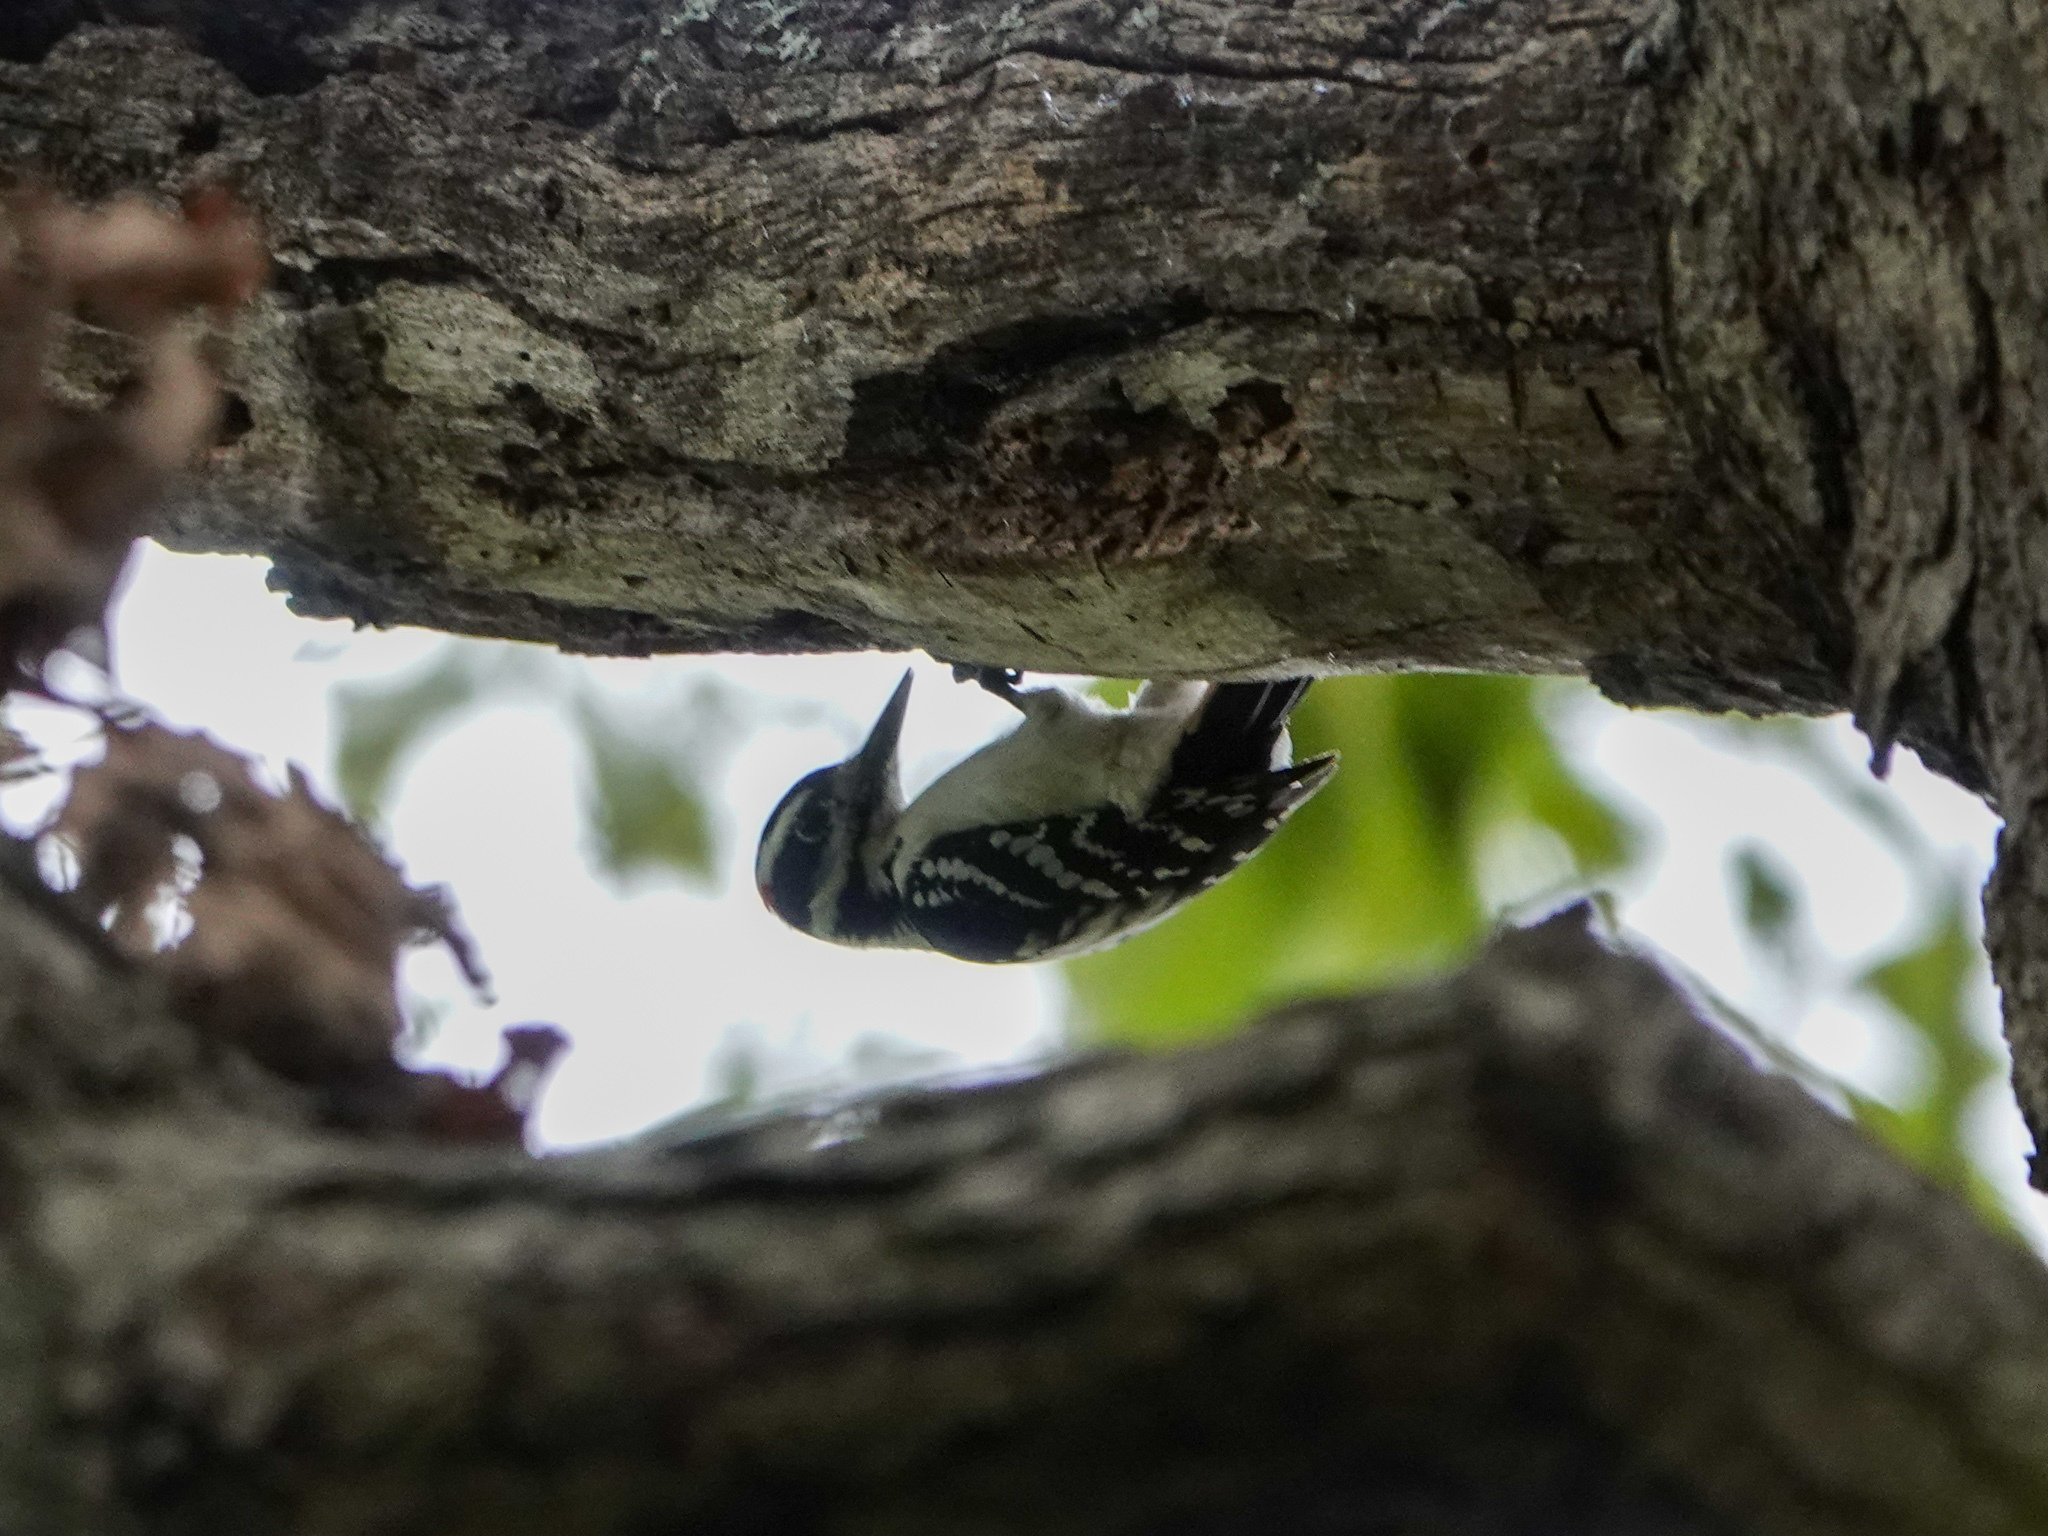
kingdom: Animalia
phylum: Chordata
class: Aves
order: Piciformes
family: Picidae
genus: Leuconotopicus
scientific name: Leuconotopicus villosus
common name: Hairy woodpecker
